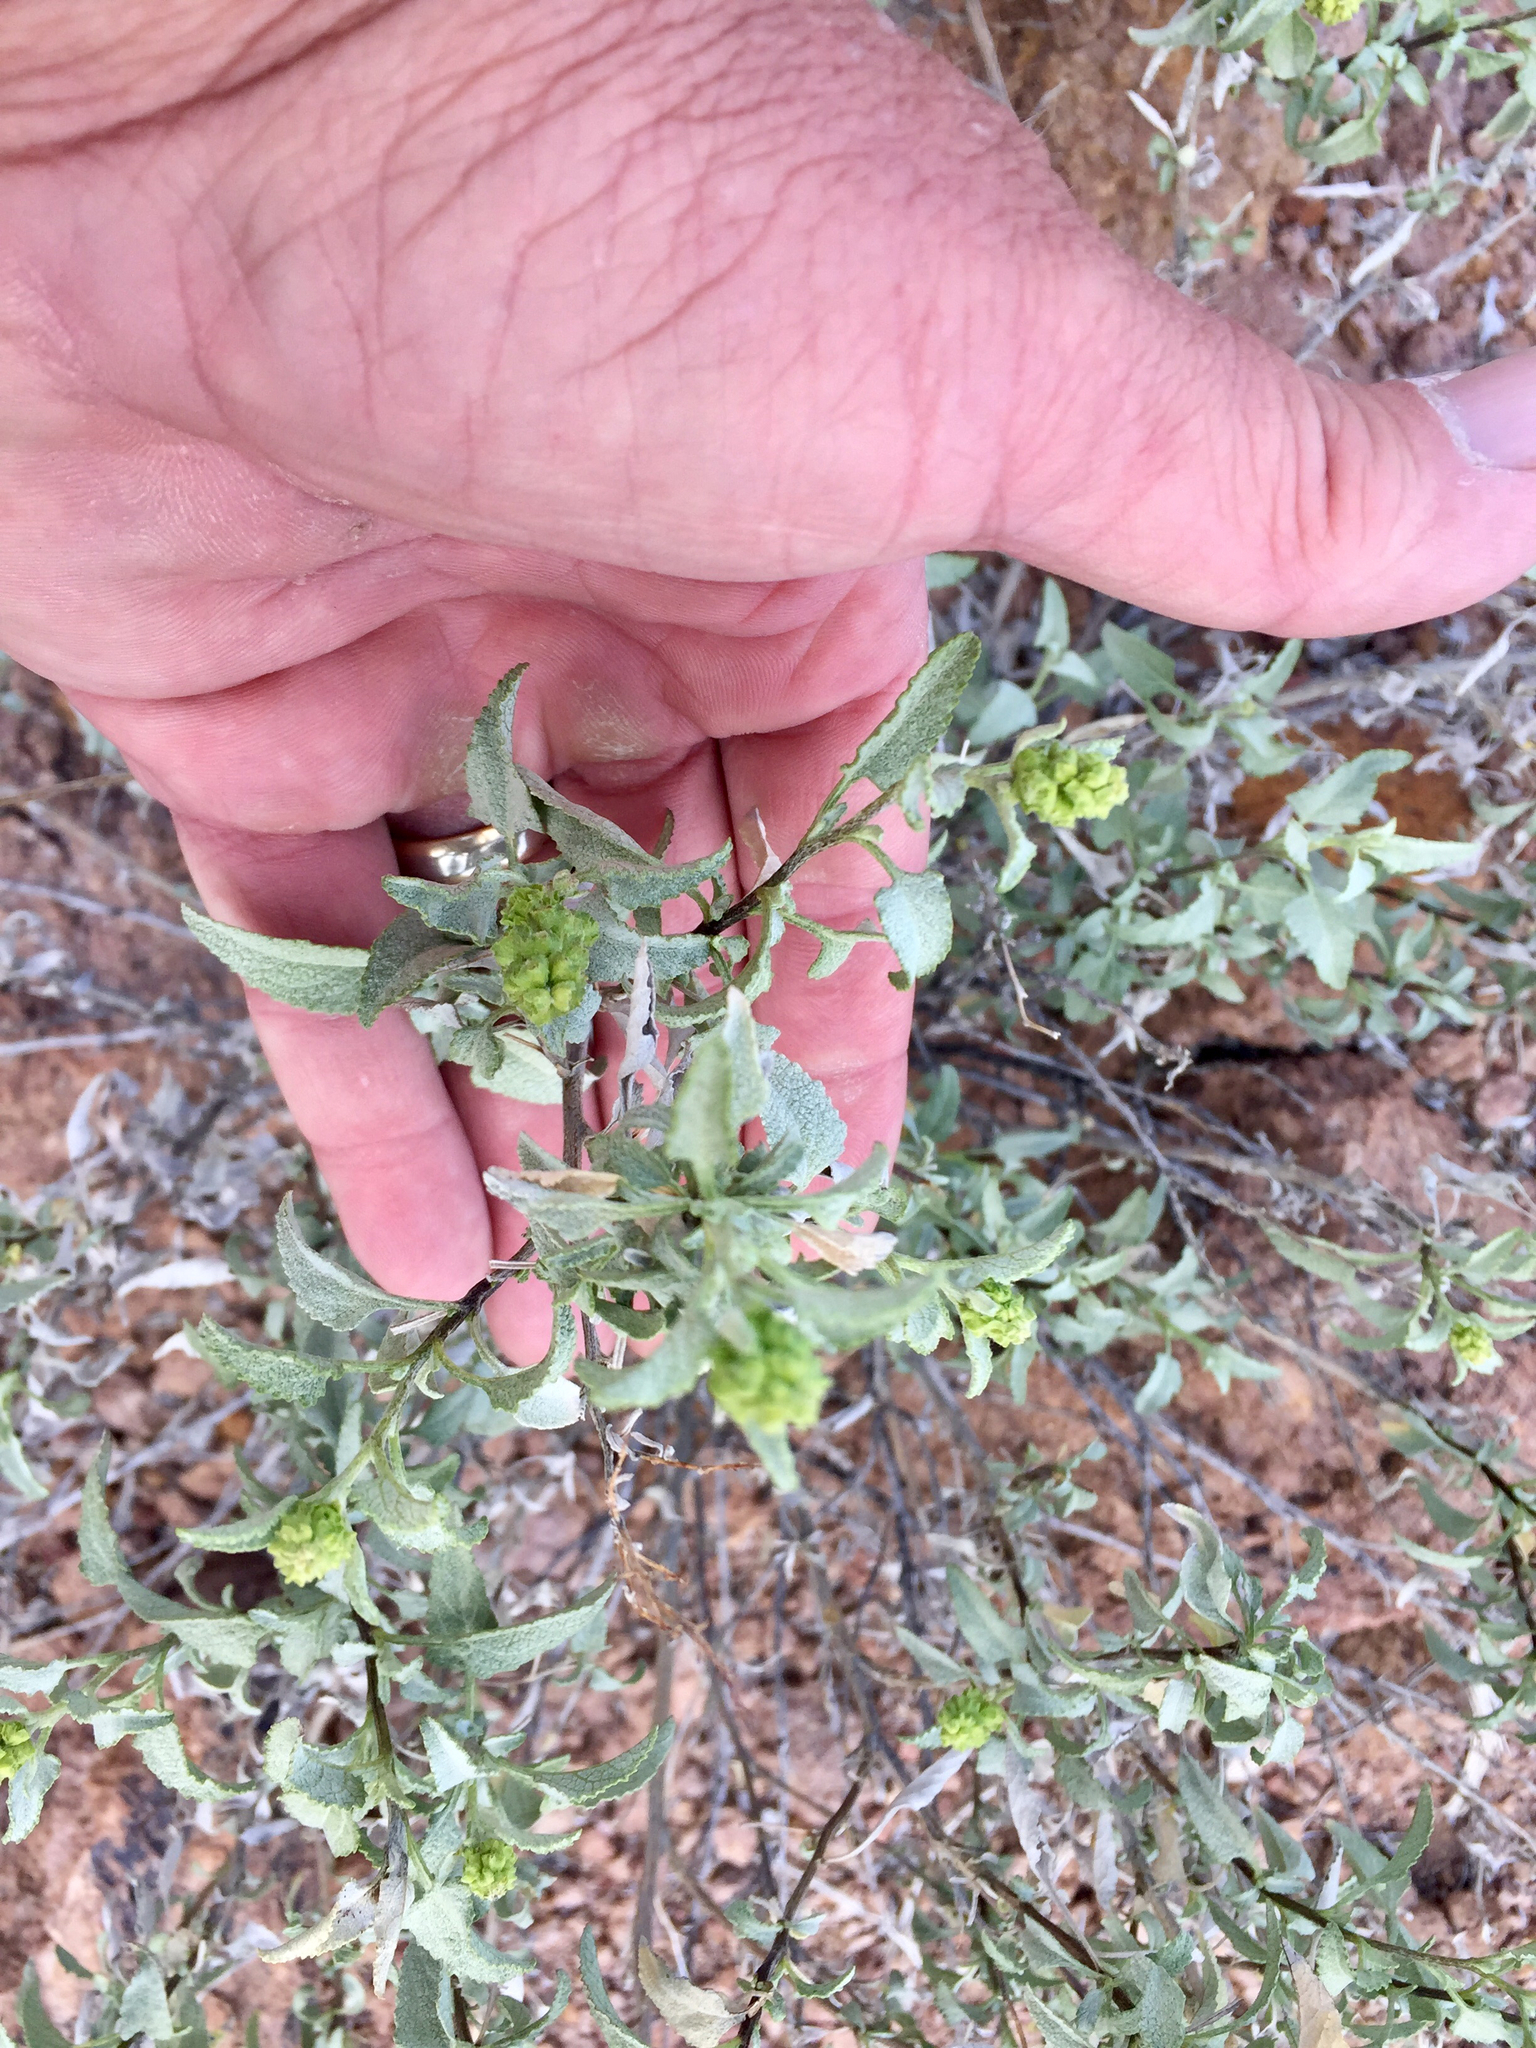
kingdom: Plantae
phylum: Tracheophyta
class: Magnoliopsida
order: Asterales
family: Asteraceae
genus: Ambrosia
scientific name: Ambrosia deltoidea
